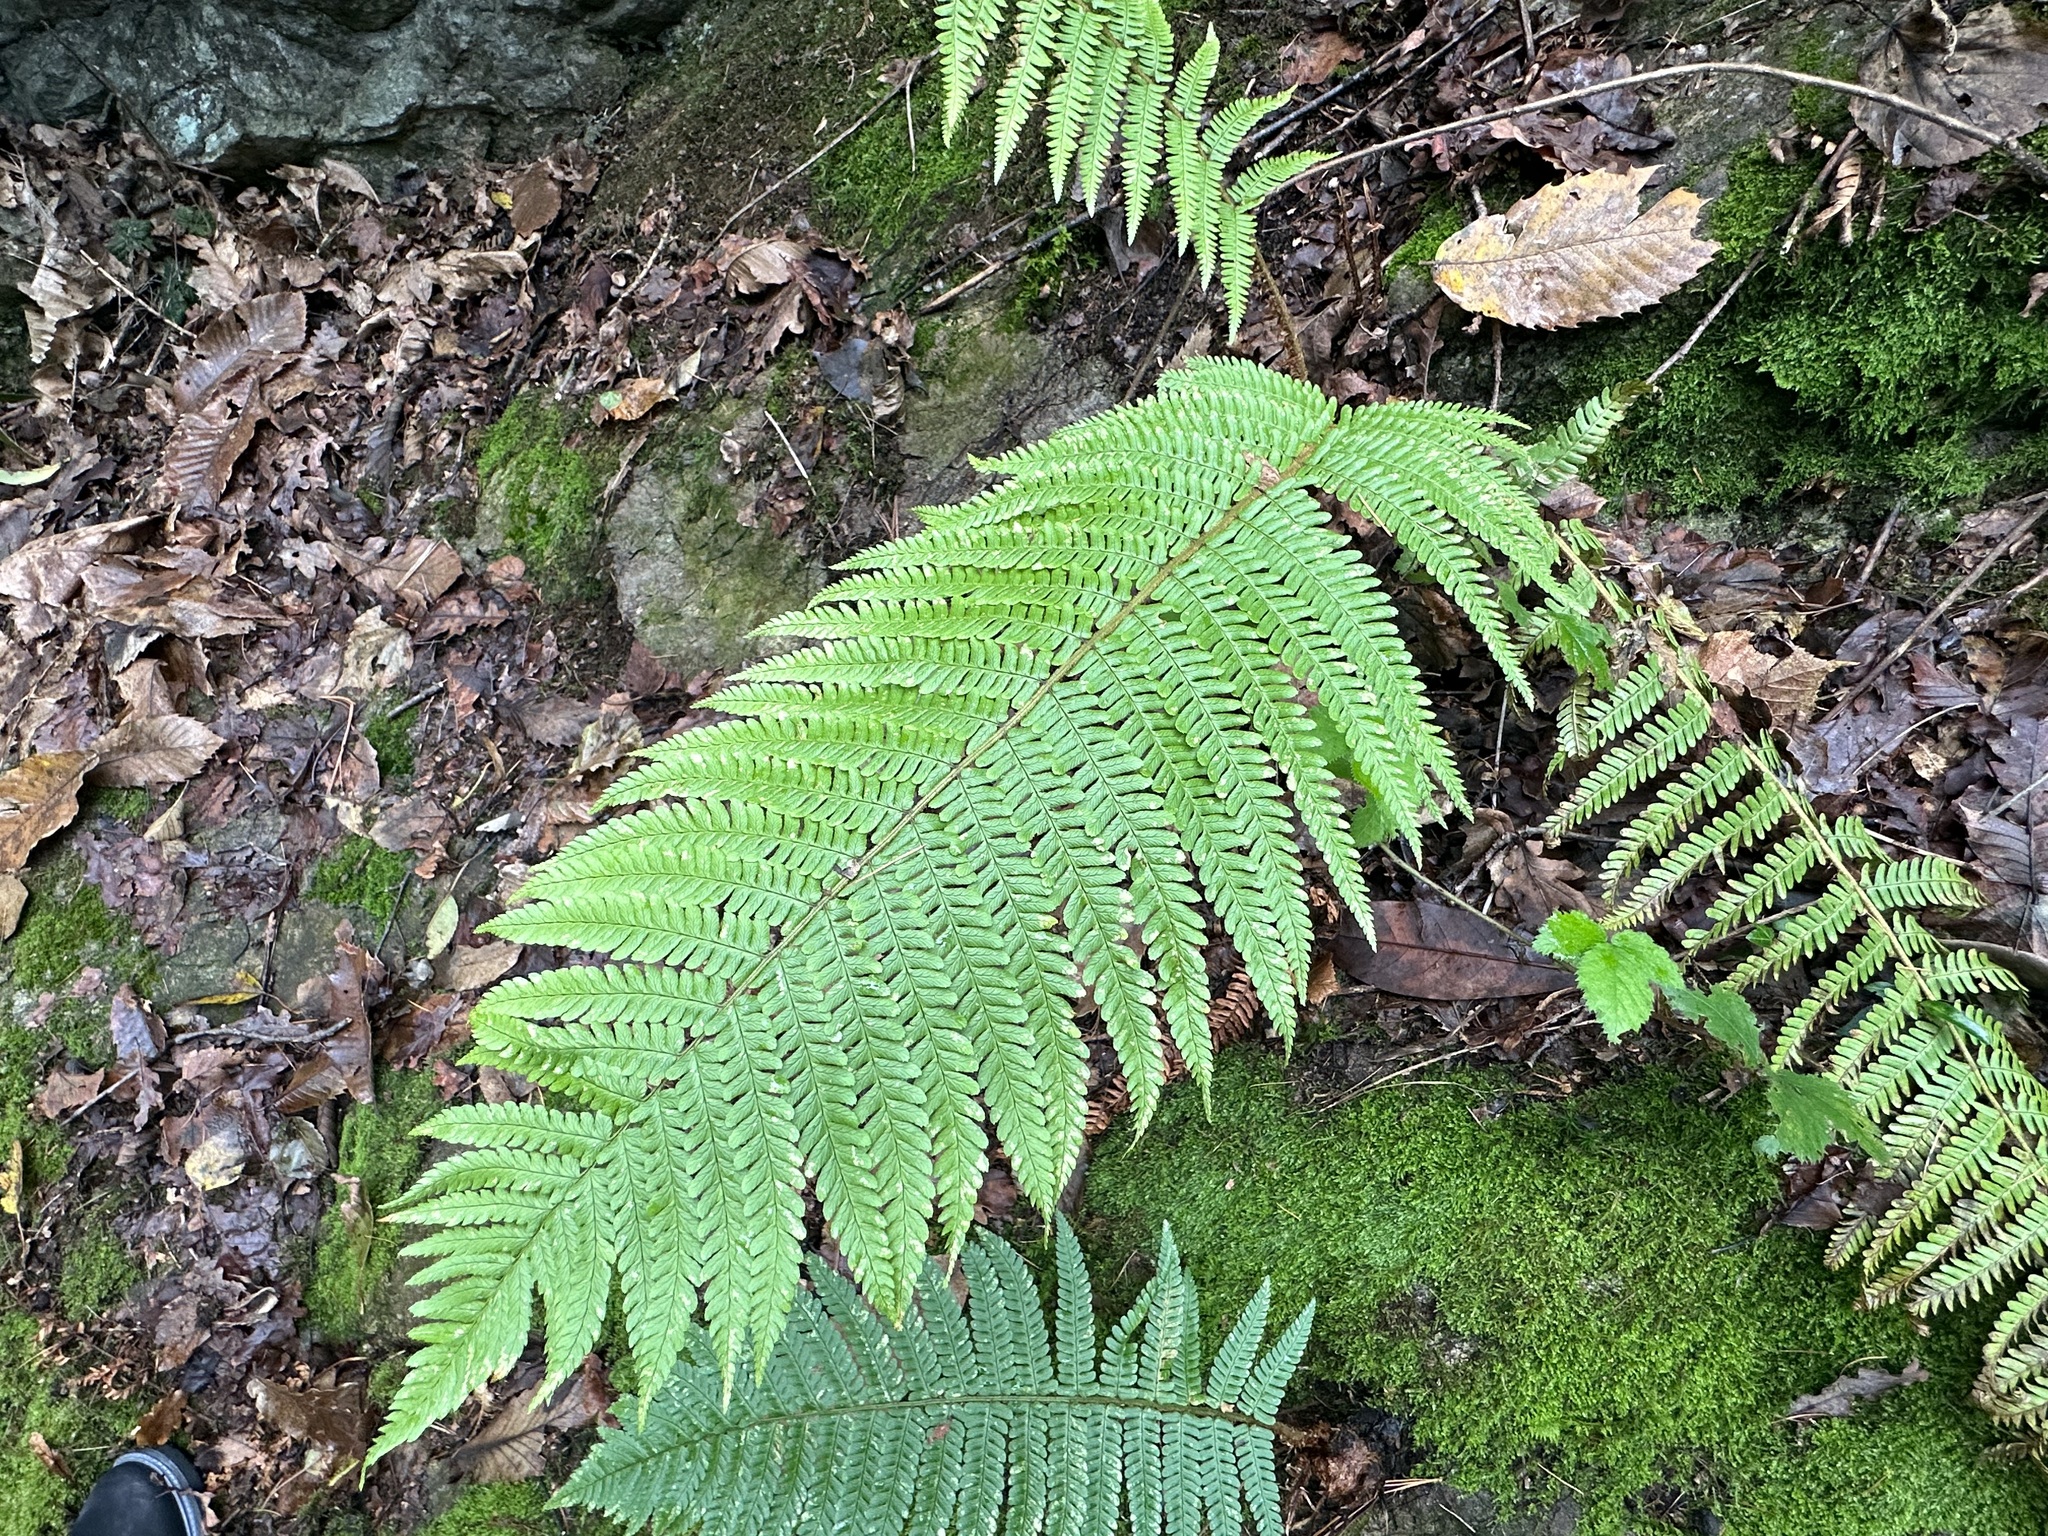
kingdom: Plantae
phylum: Tracheophyta
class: Polypodiopsida
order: Polypodiales
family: Dryopteridaceae
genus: Dryopteris
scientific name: Dryopteris affinis
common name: Scaly male fern
